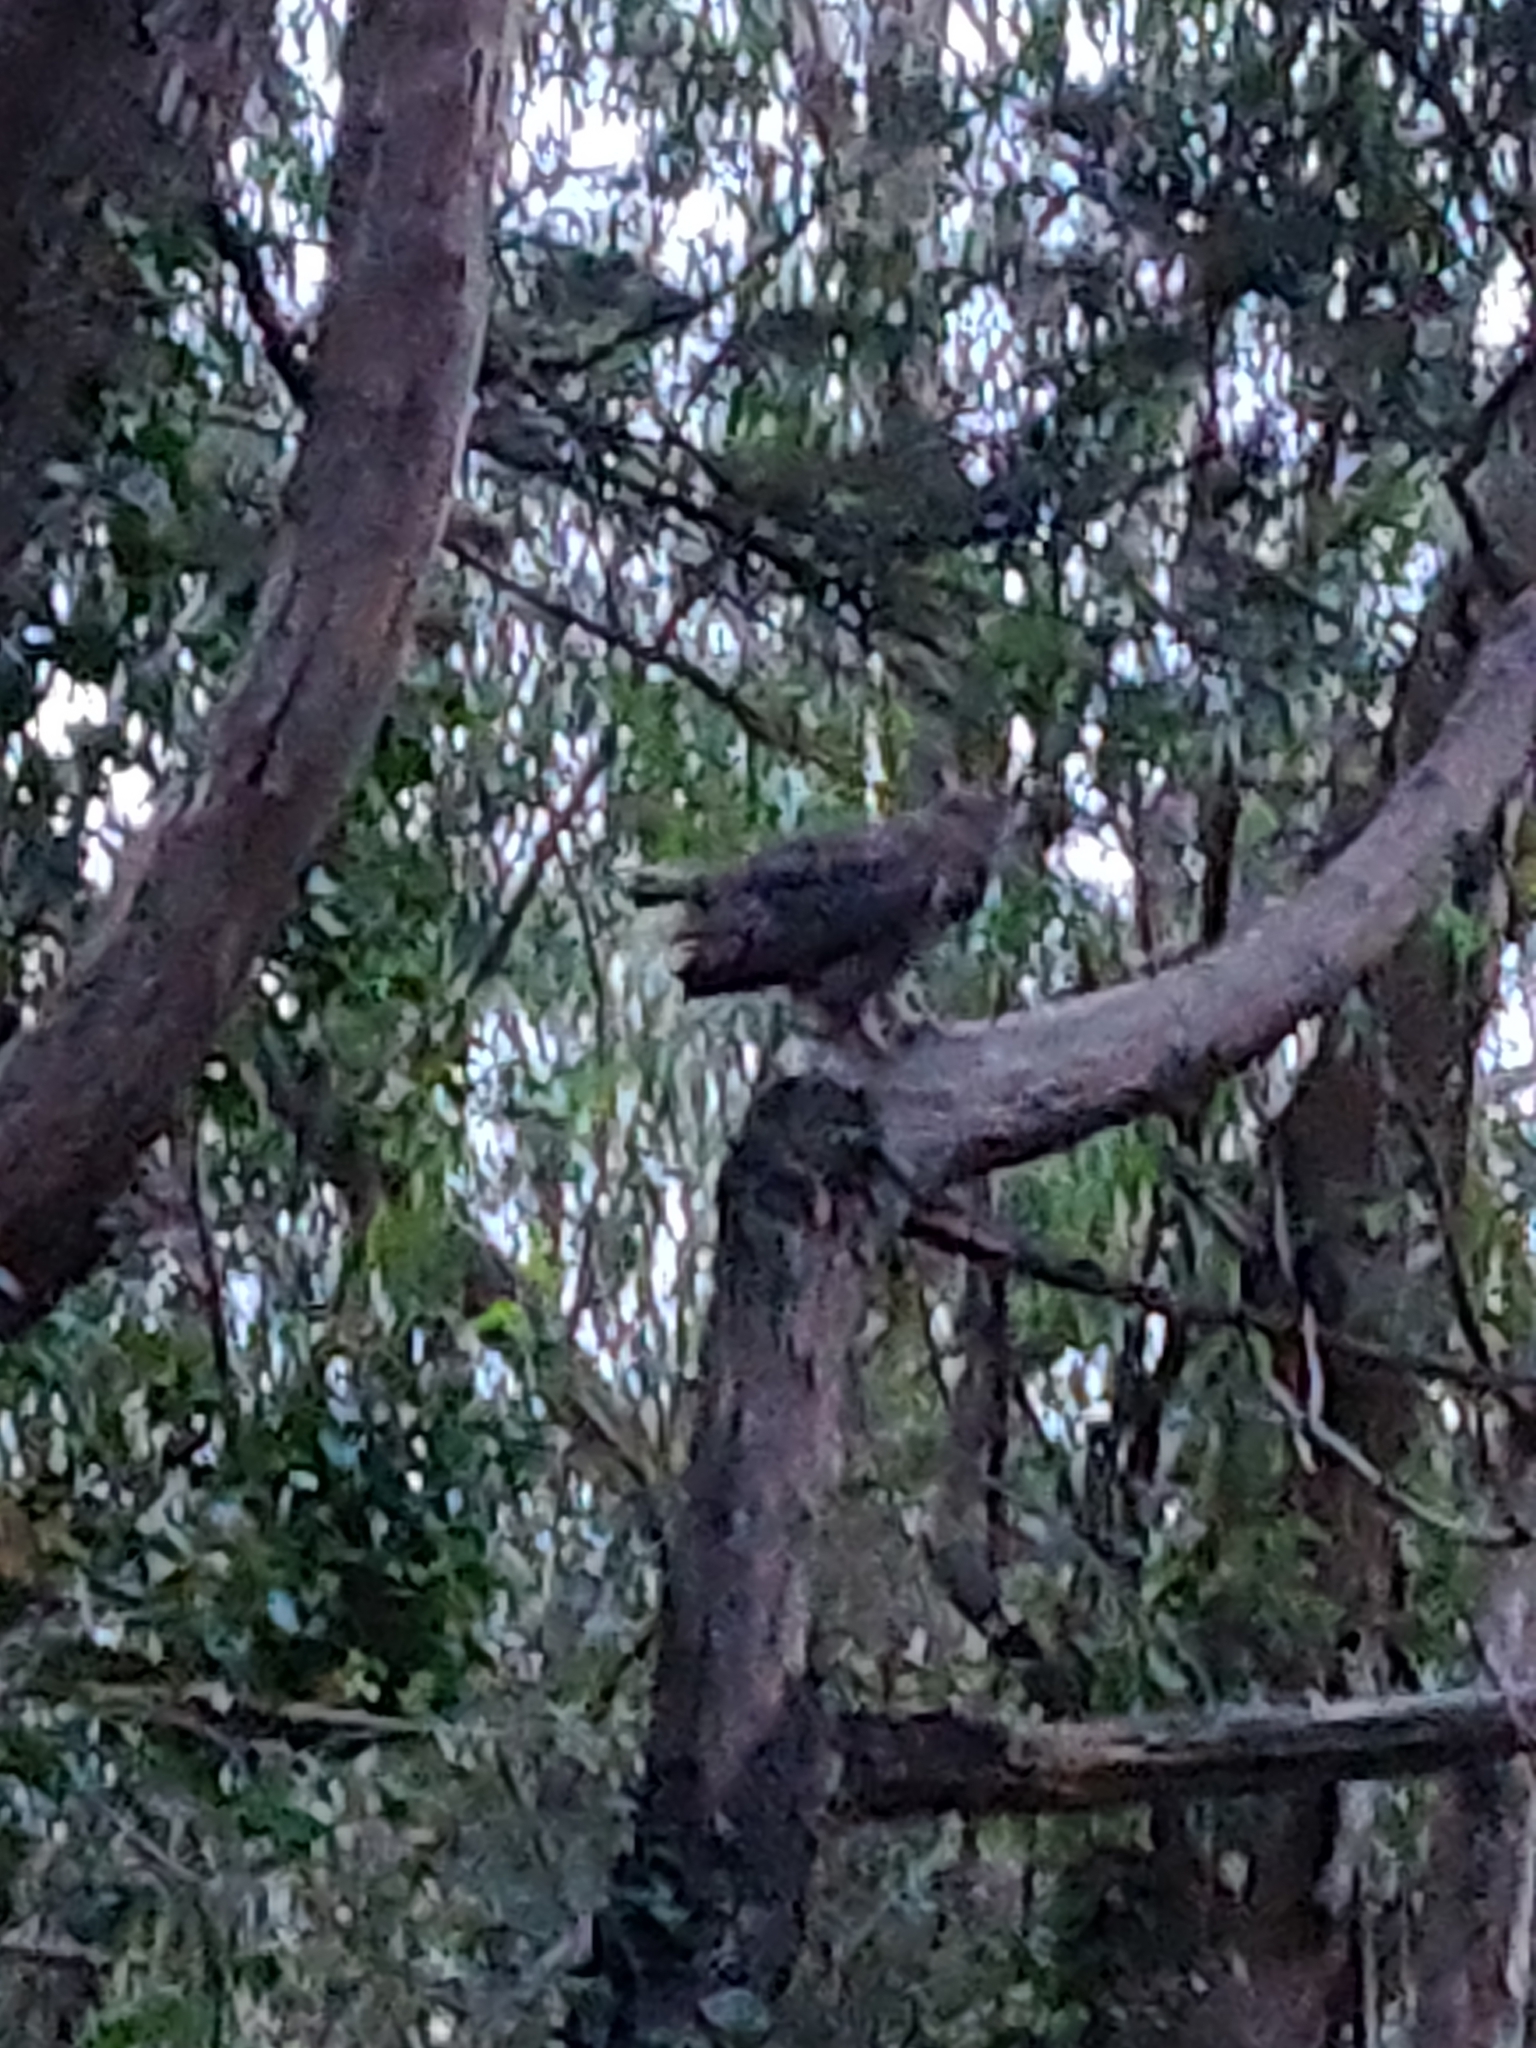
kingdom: Animalia
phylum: Chordata
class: Aves
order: Strigiformes
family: Strigidae
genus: Bubo
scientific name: Bubo virginianus
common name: Great horned owl
